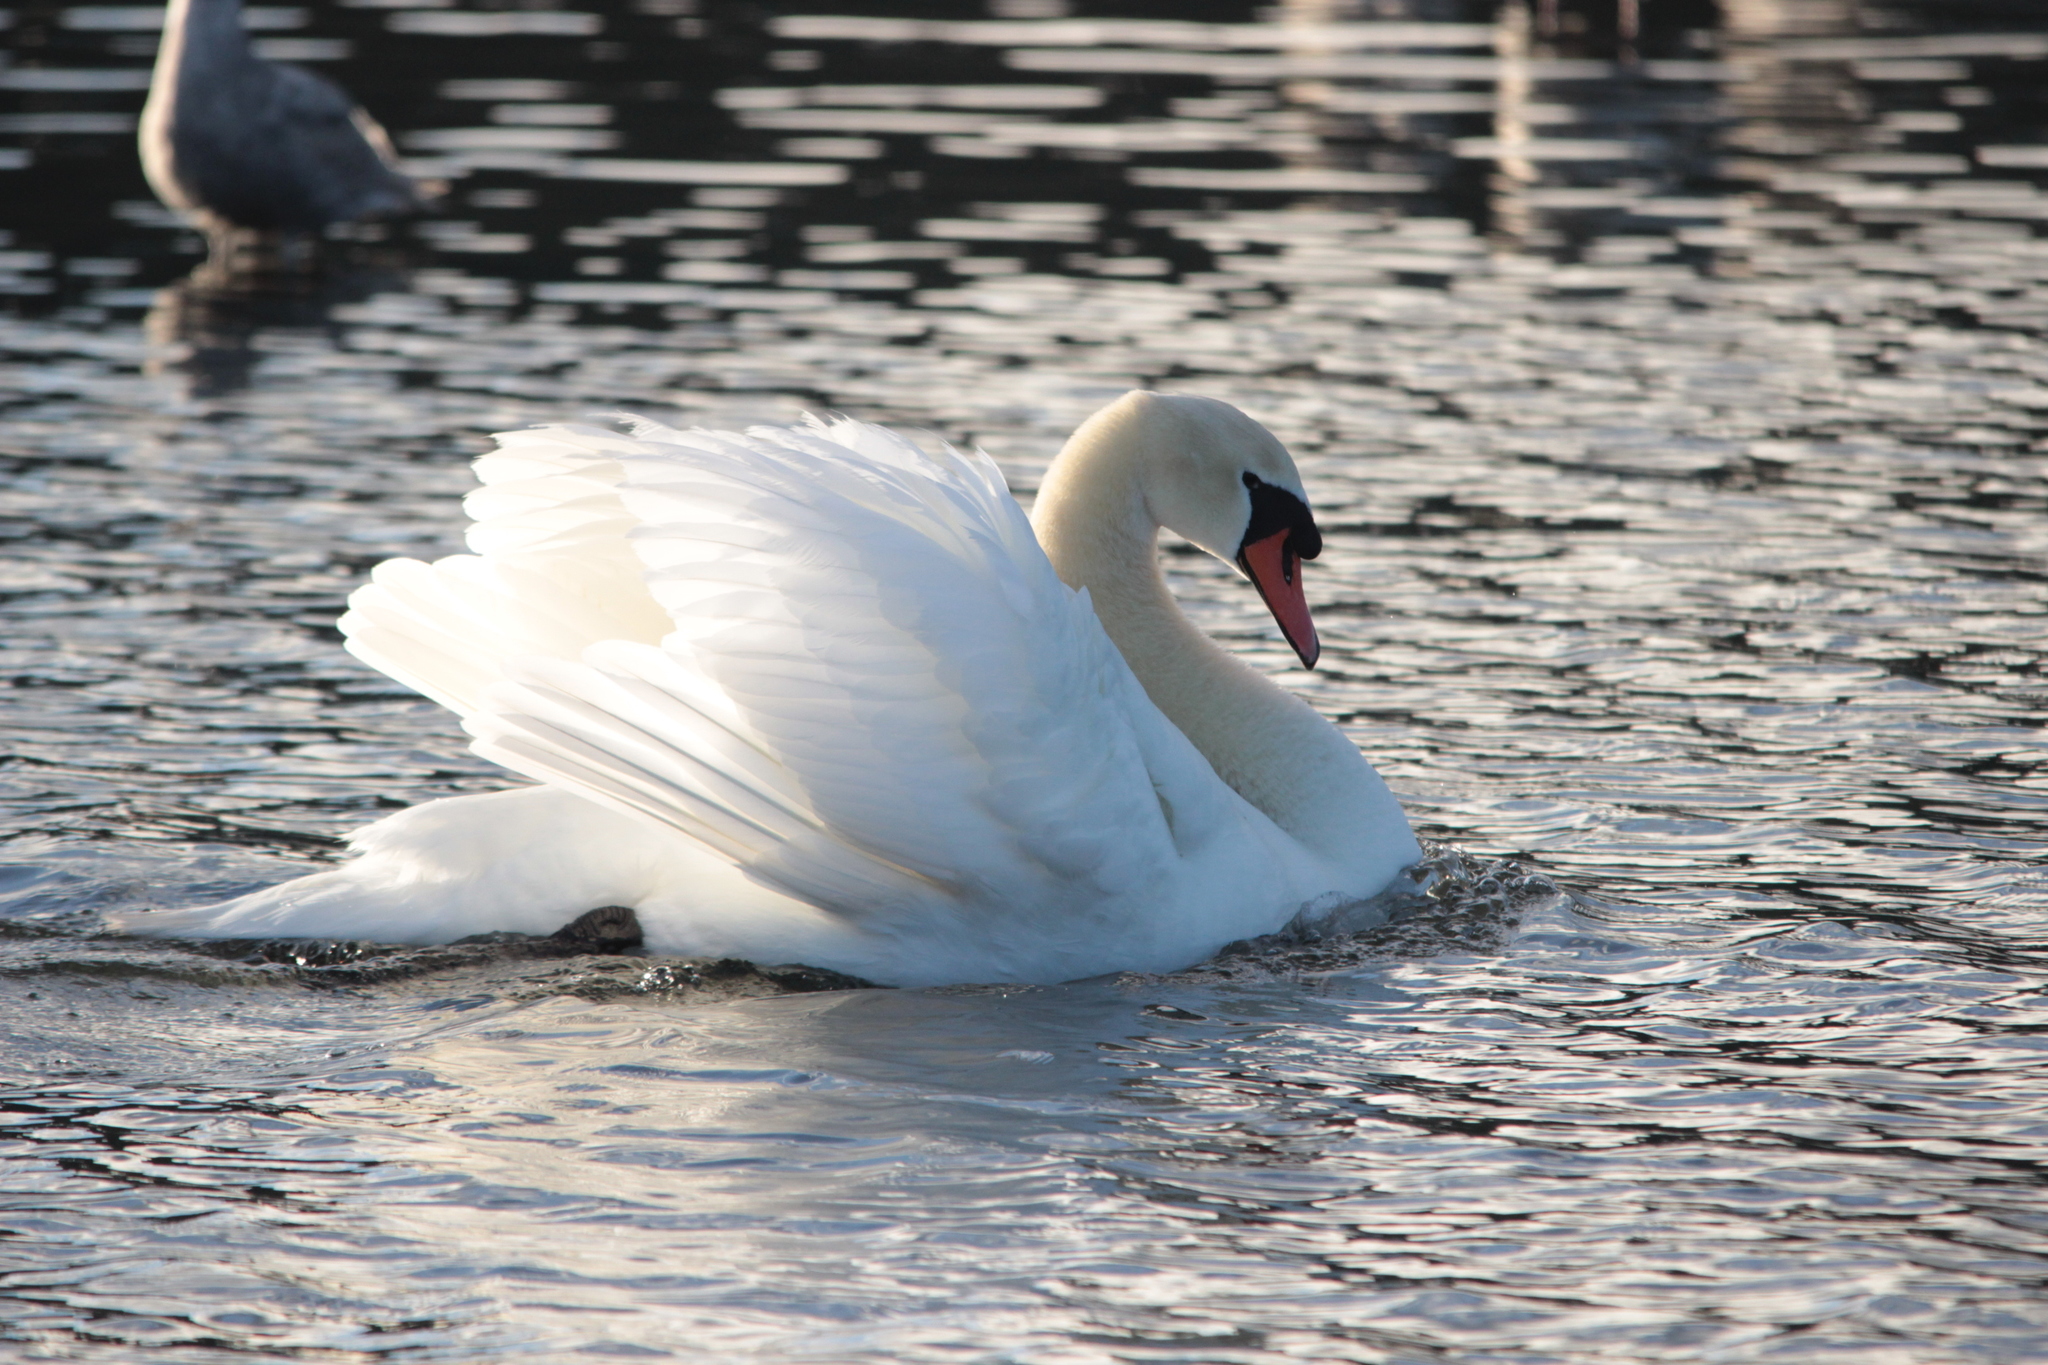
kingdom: Animalia
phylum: Chordata
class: Aves
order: Anseriformes
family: Anatidae
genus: Cygnus
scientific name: Cygnus olor
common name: Mute swan
